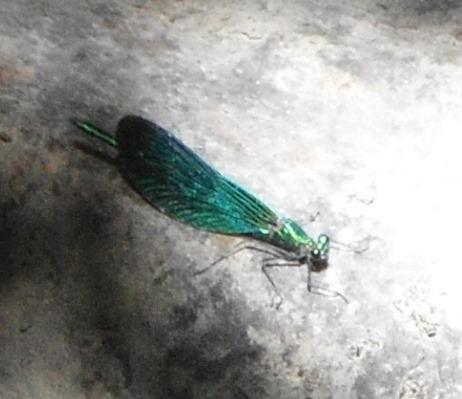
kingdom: Animalia
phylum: Arthropoda
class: Insecta
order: Odonata
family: Calopterygidae
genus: Calopteryx
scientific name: Calopteryx virgo
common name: Beautiful demoiselle
